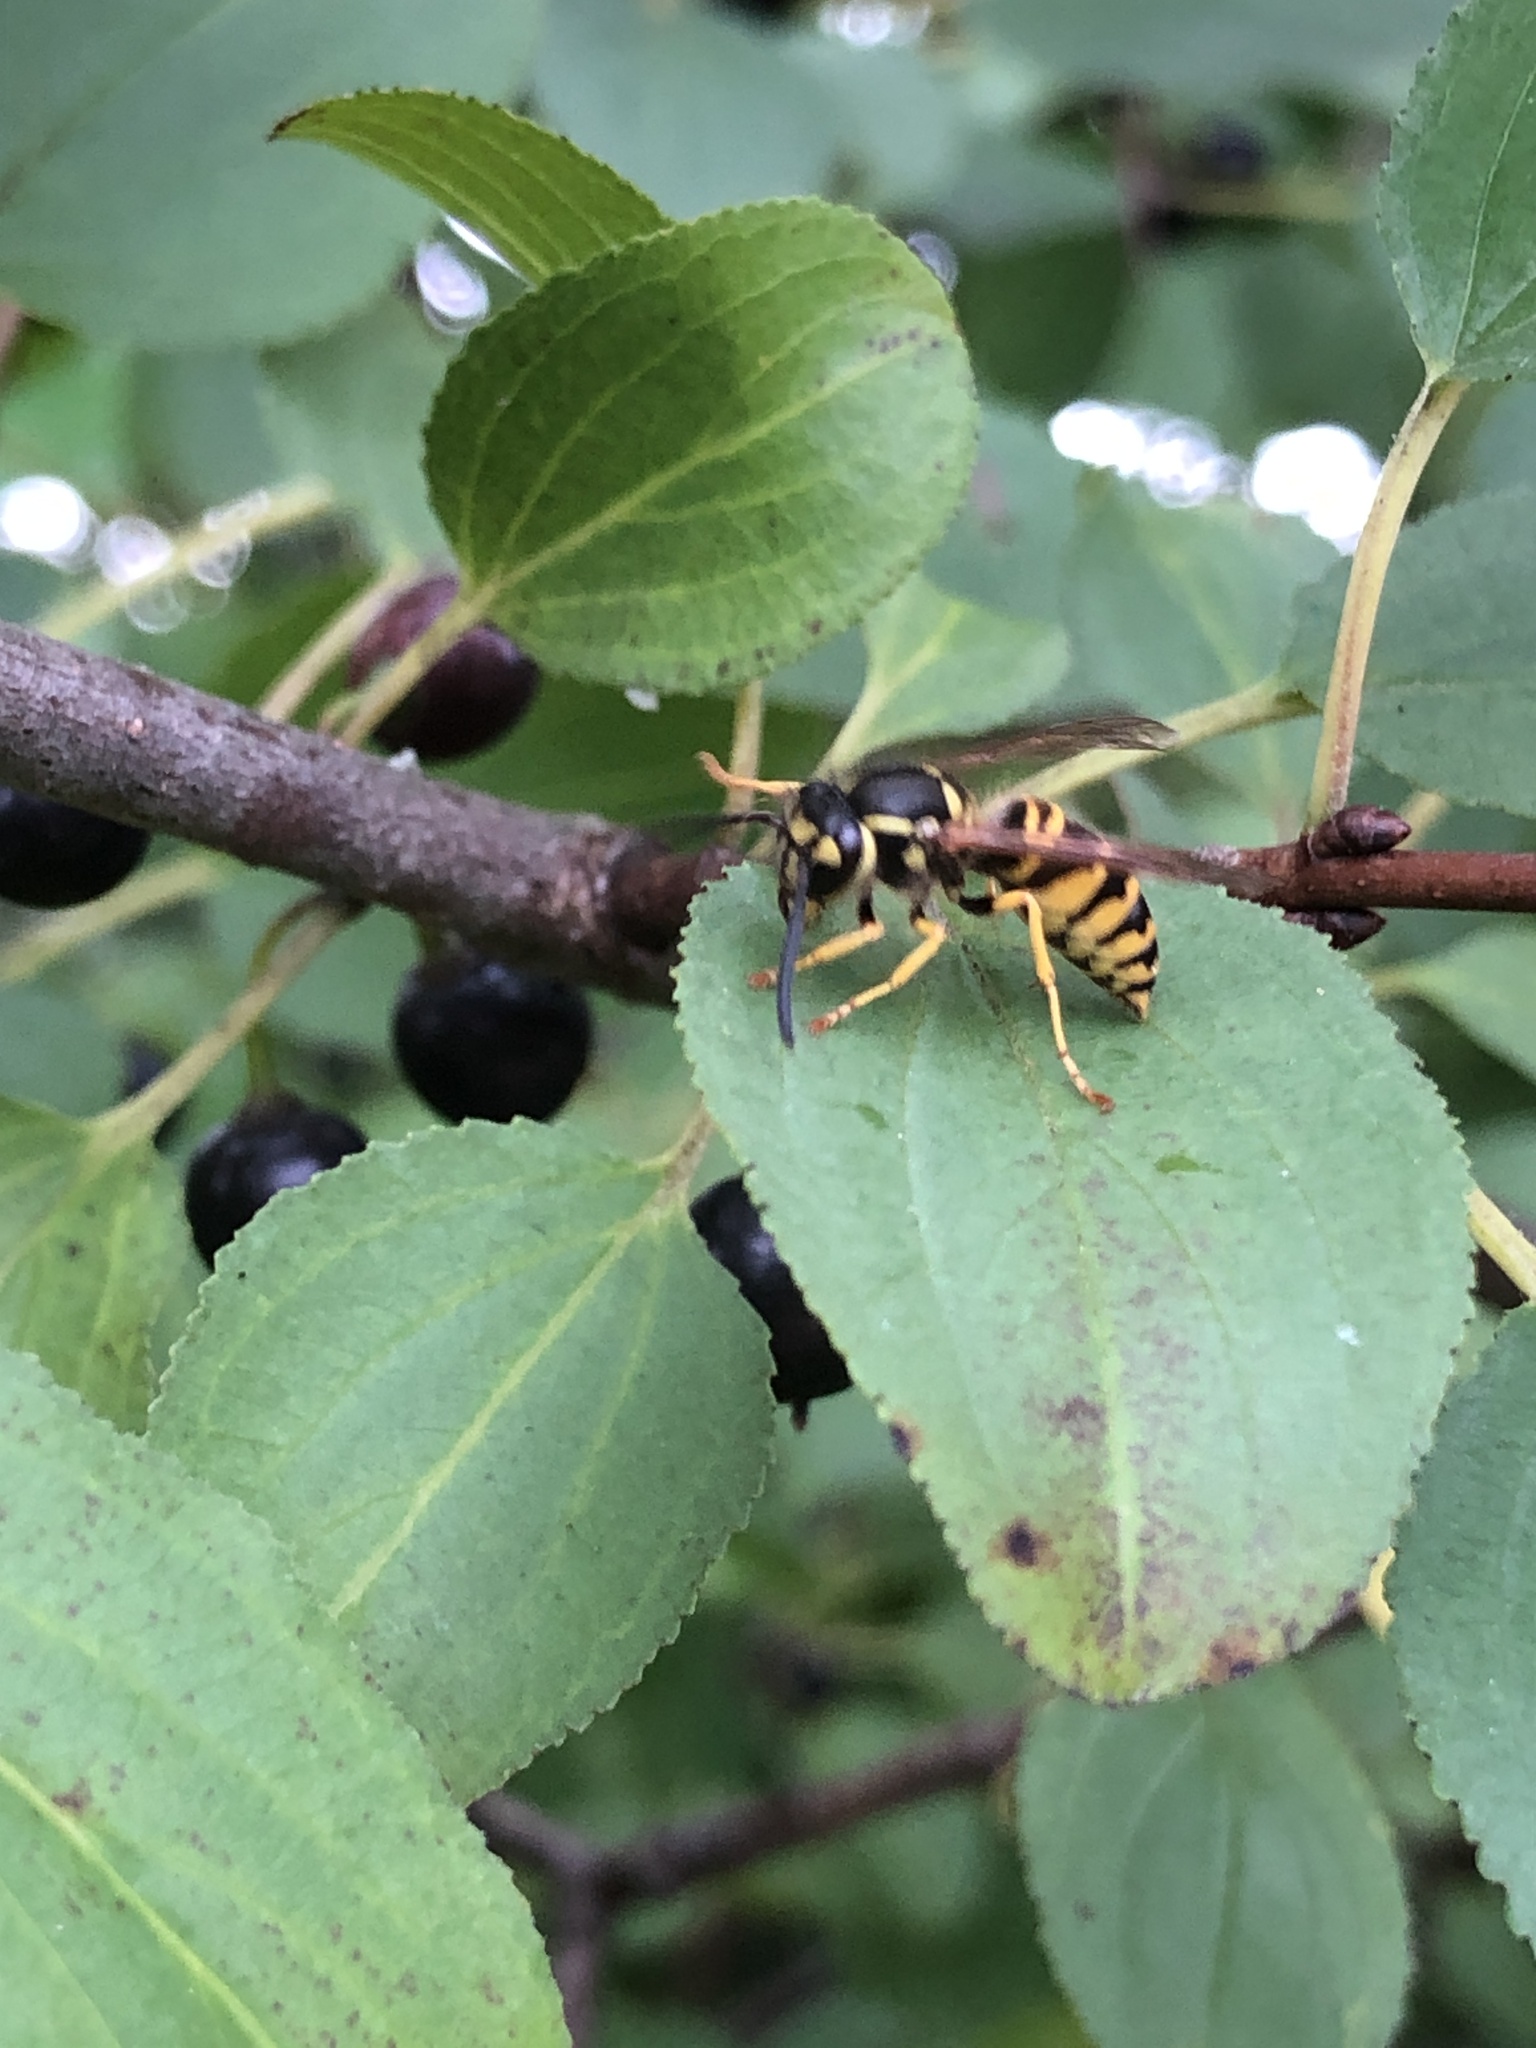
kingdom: Animalia
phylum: Arthropoda
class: Insecta
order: Hymenoptera
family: Vespidae
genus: Vespula
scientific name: Vespula maculifrons
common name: Eastern yellowjacket
